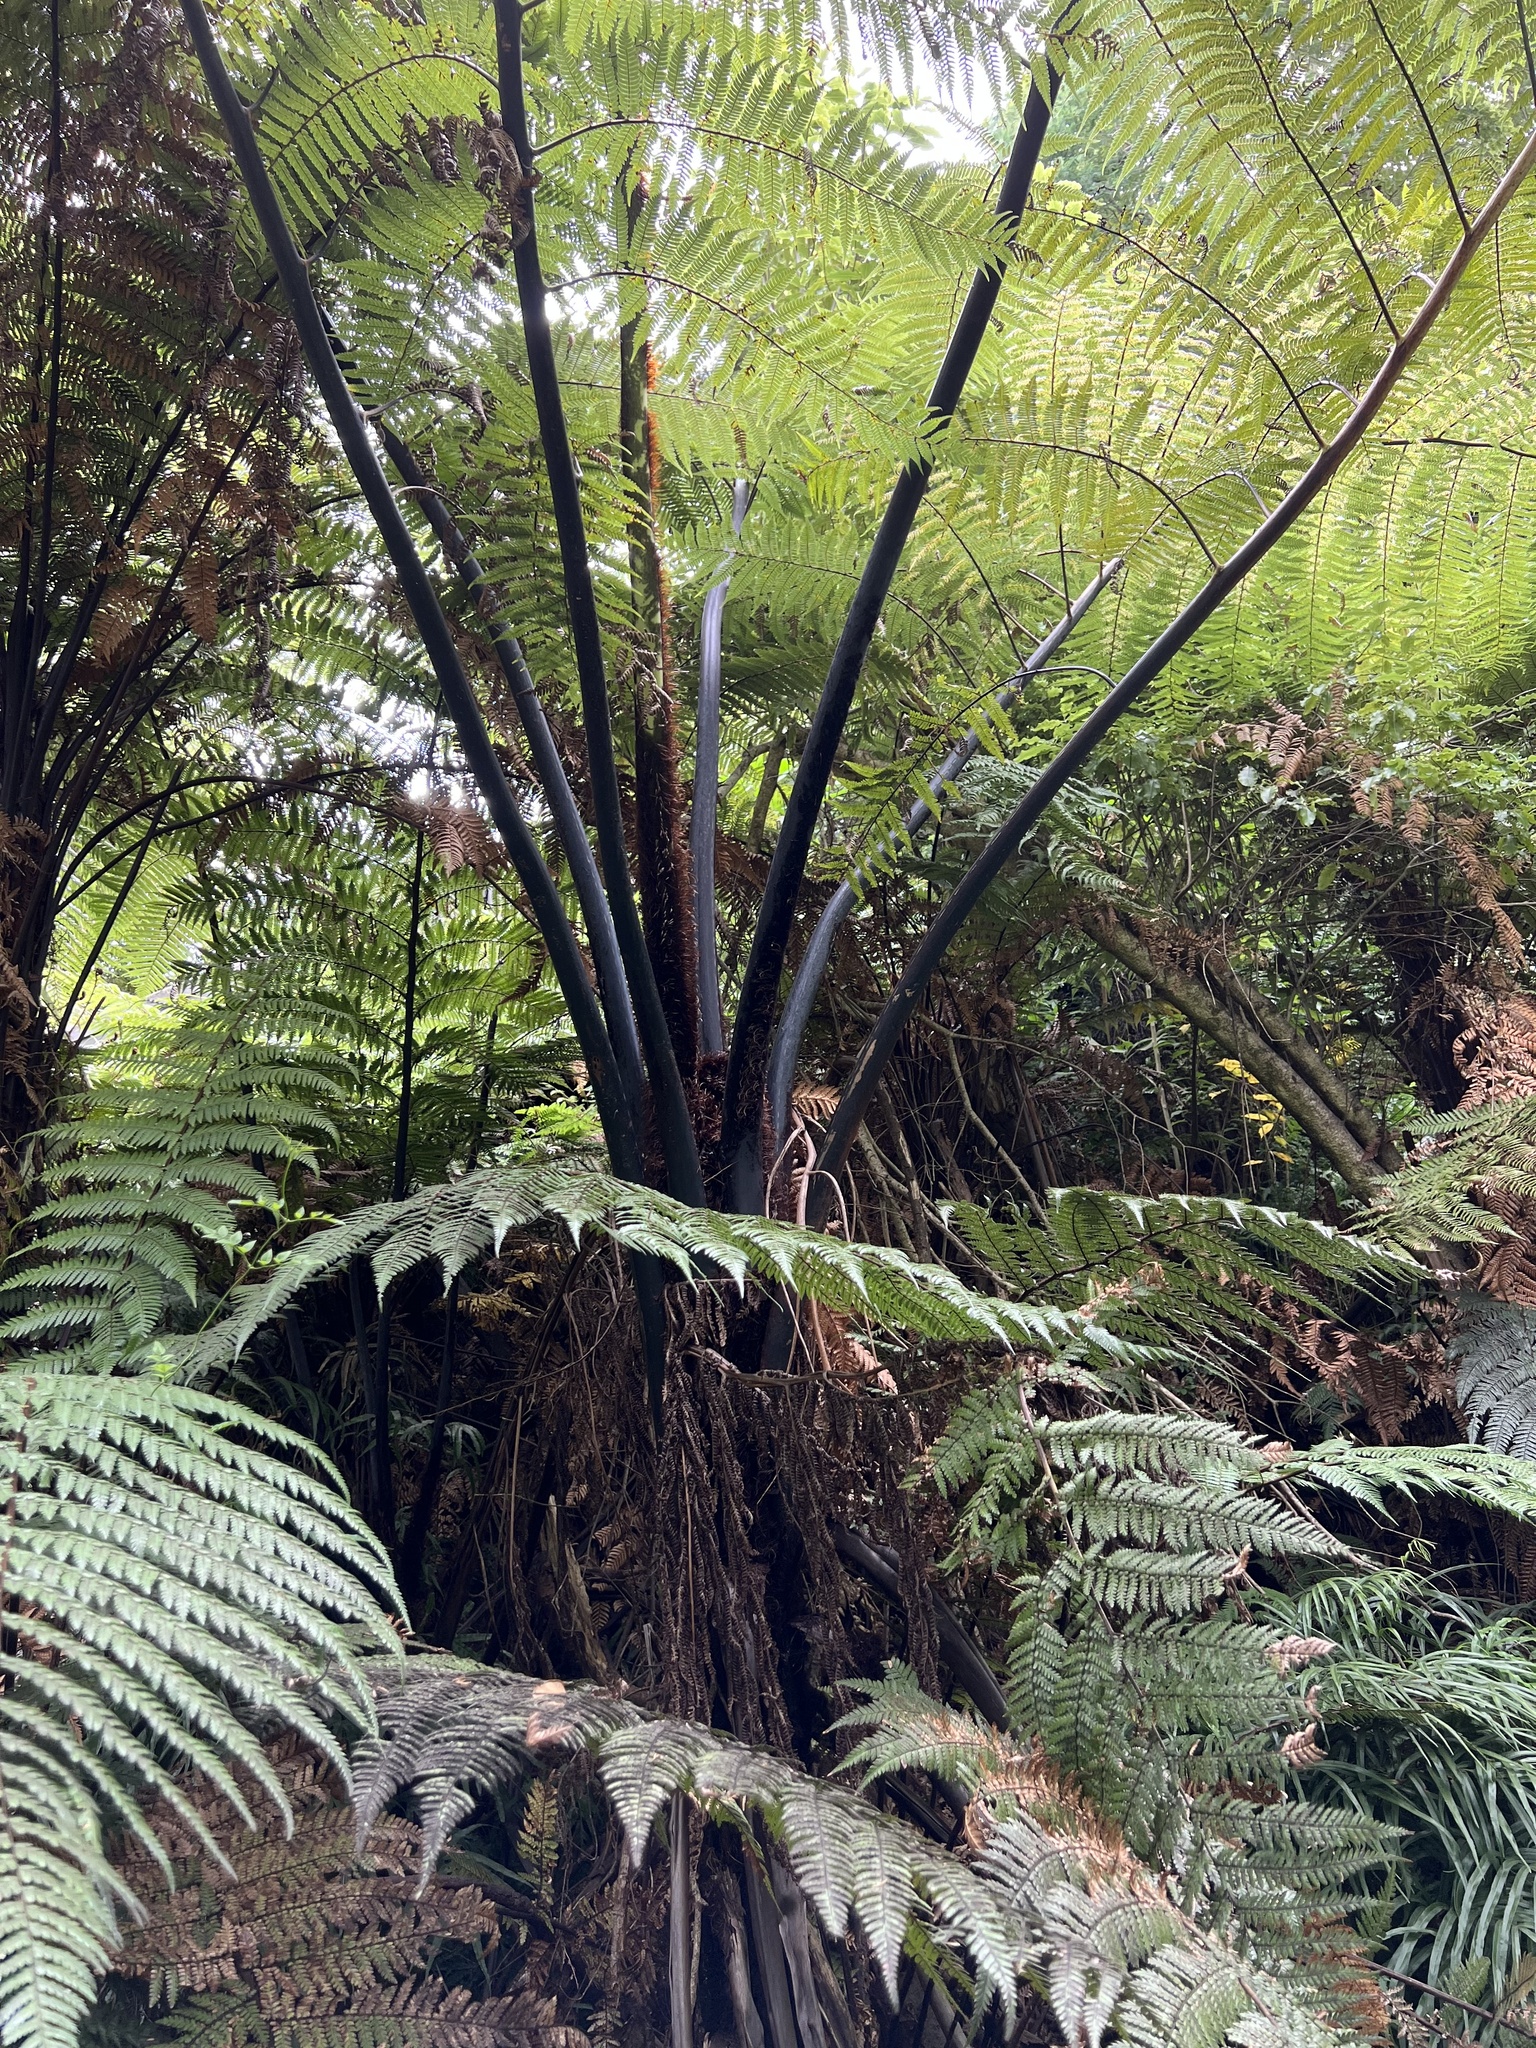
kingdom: Plantae
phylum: Tracheophyta
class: Polypodiopsida
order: Cyatheales
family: Cyatheaceae
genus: Sphaeropteris
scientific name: Sphaeropteris medullaris
